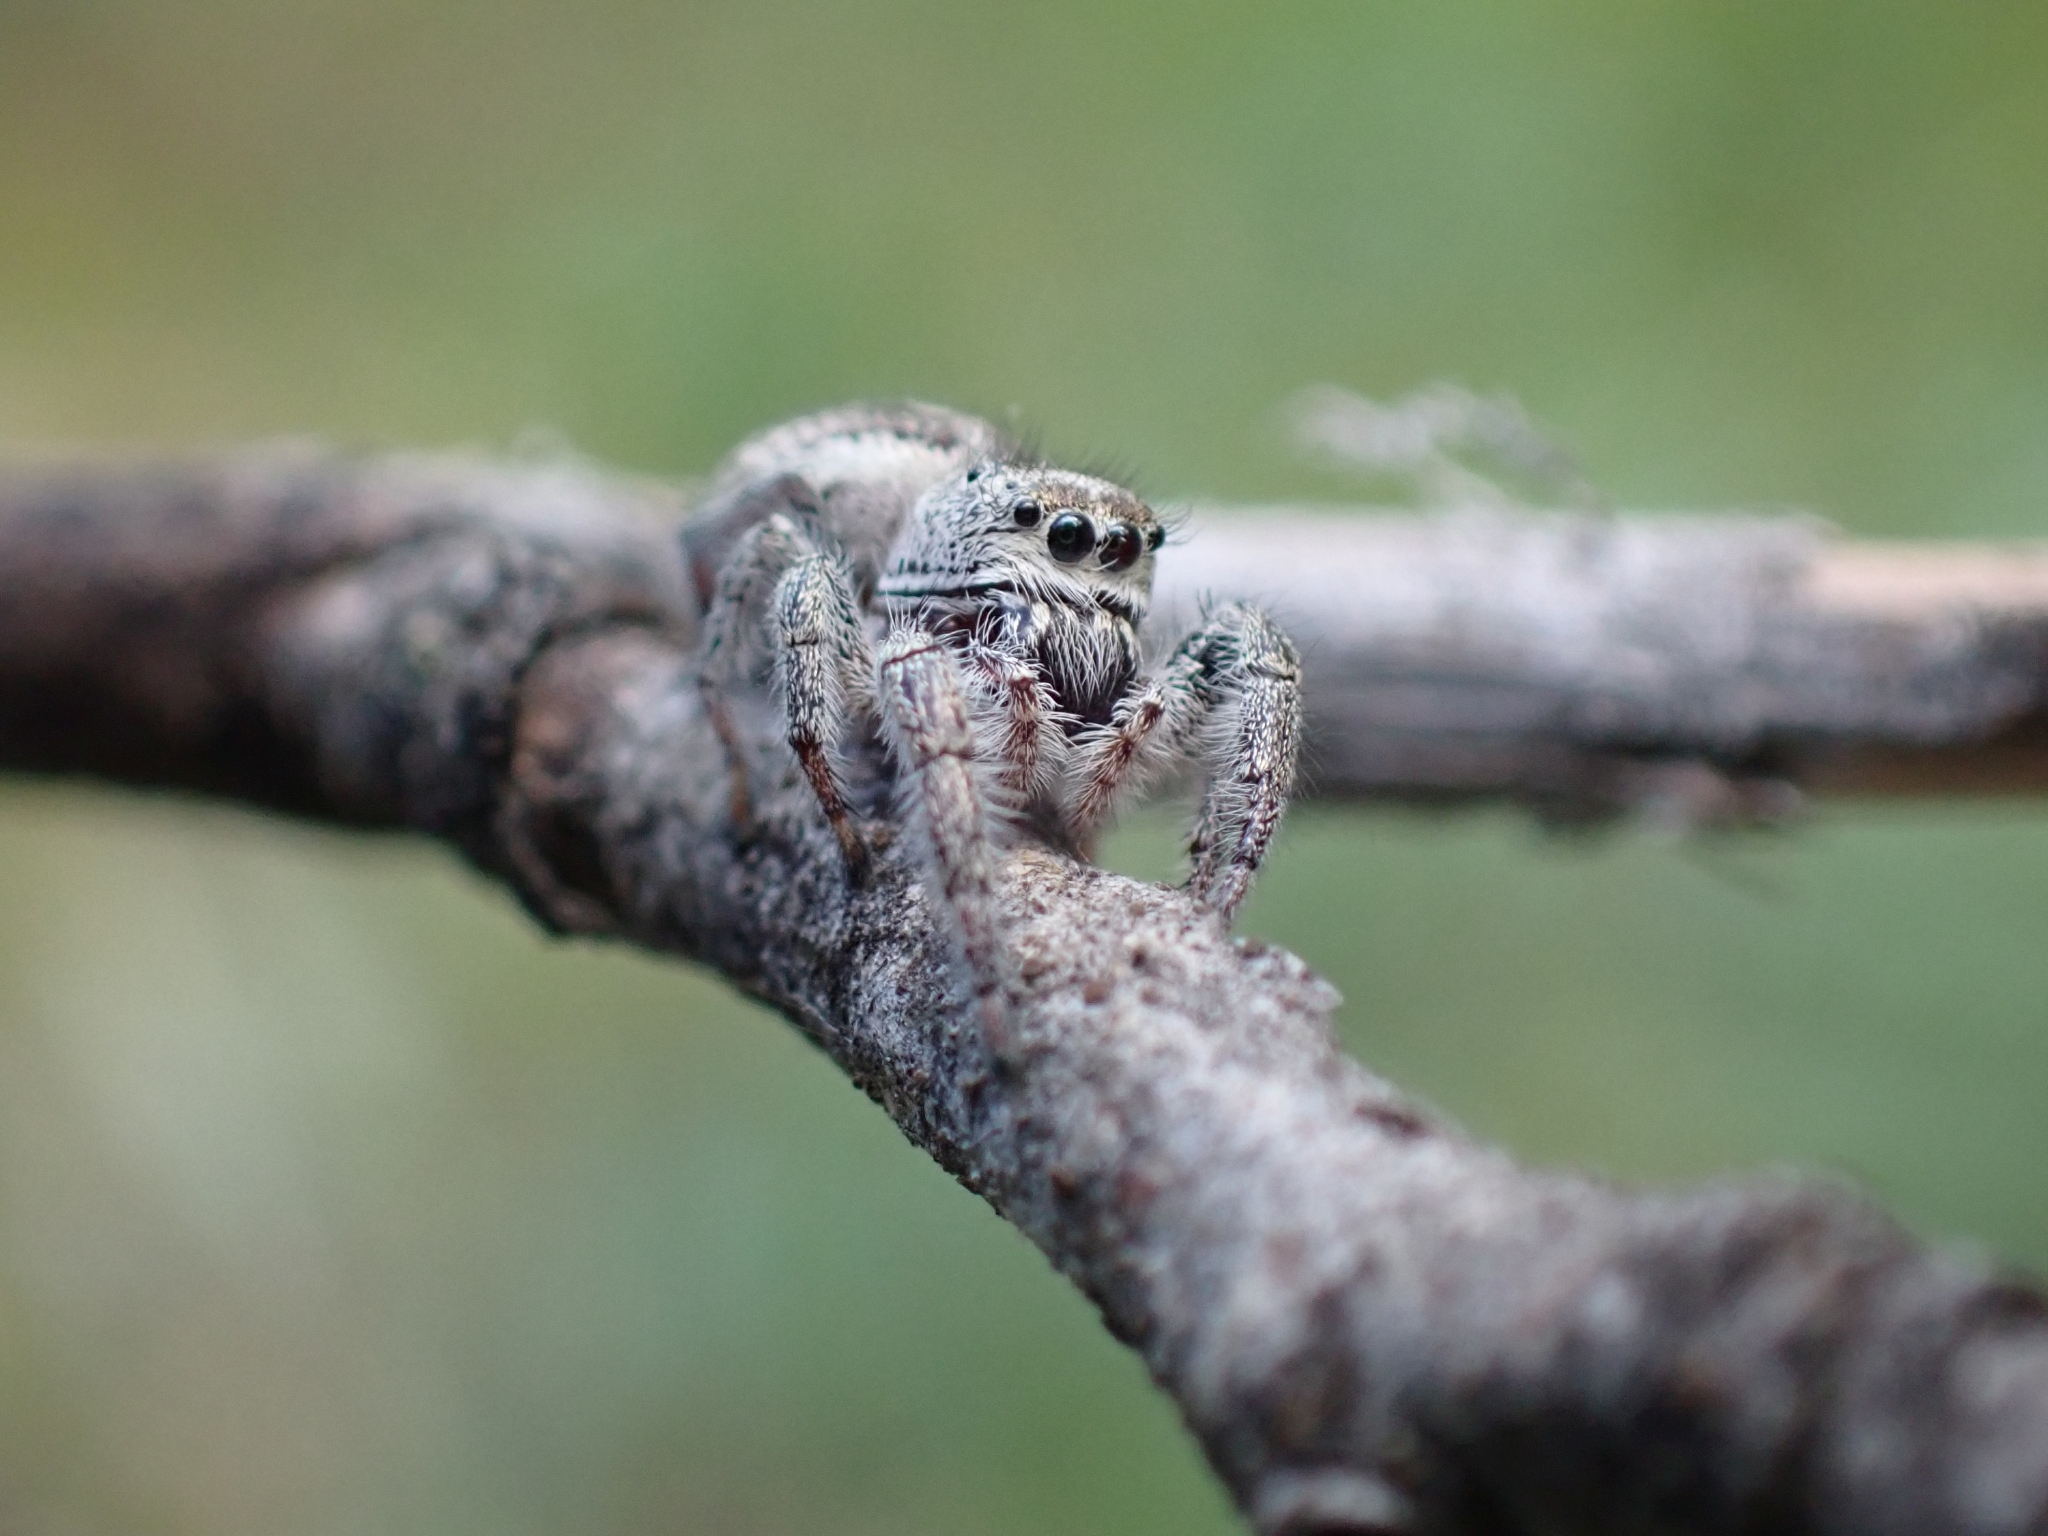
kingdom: Animalia
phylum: Arthropoda
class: Arachnida
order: Araneae
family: Salticidae
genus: Eris
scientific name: Eris militaris
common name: Bronze jumper
